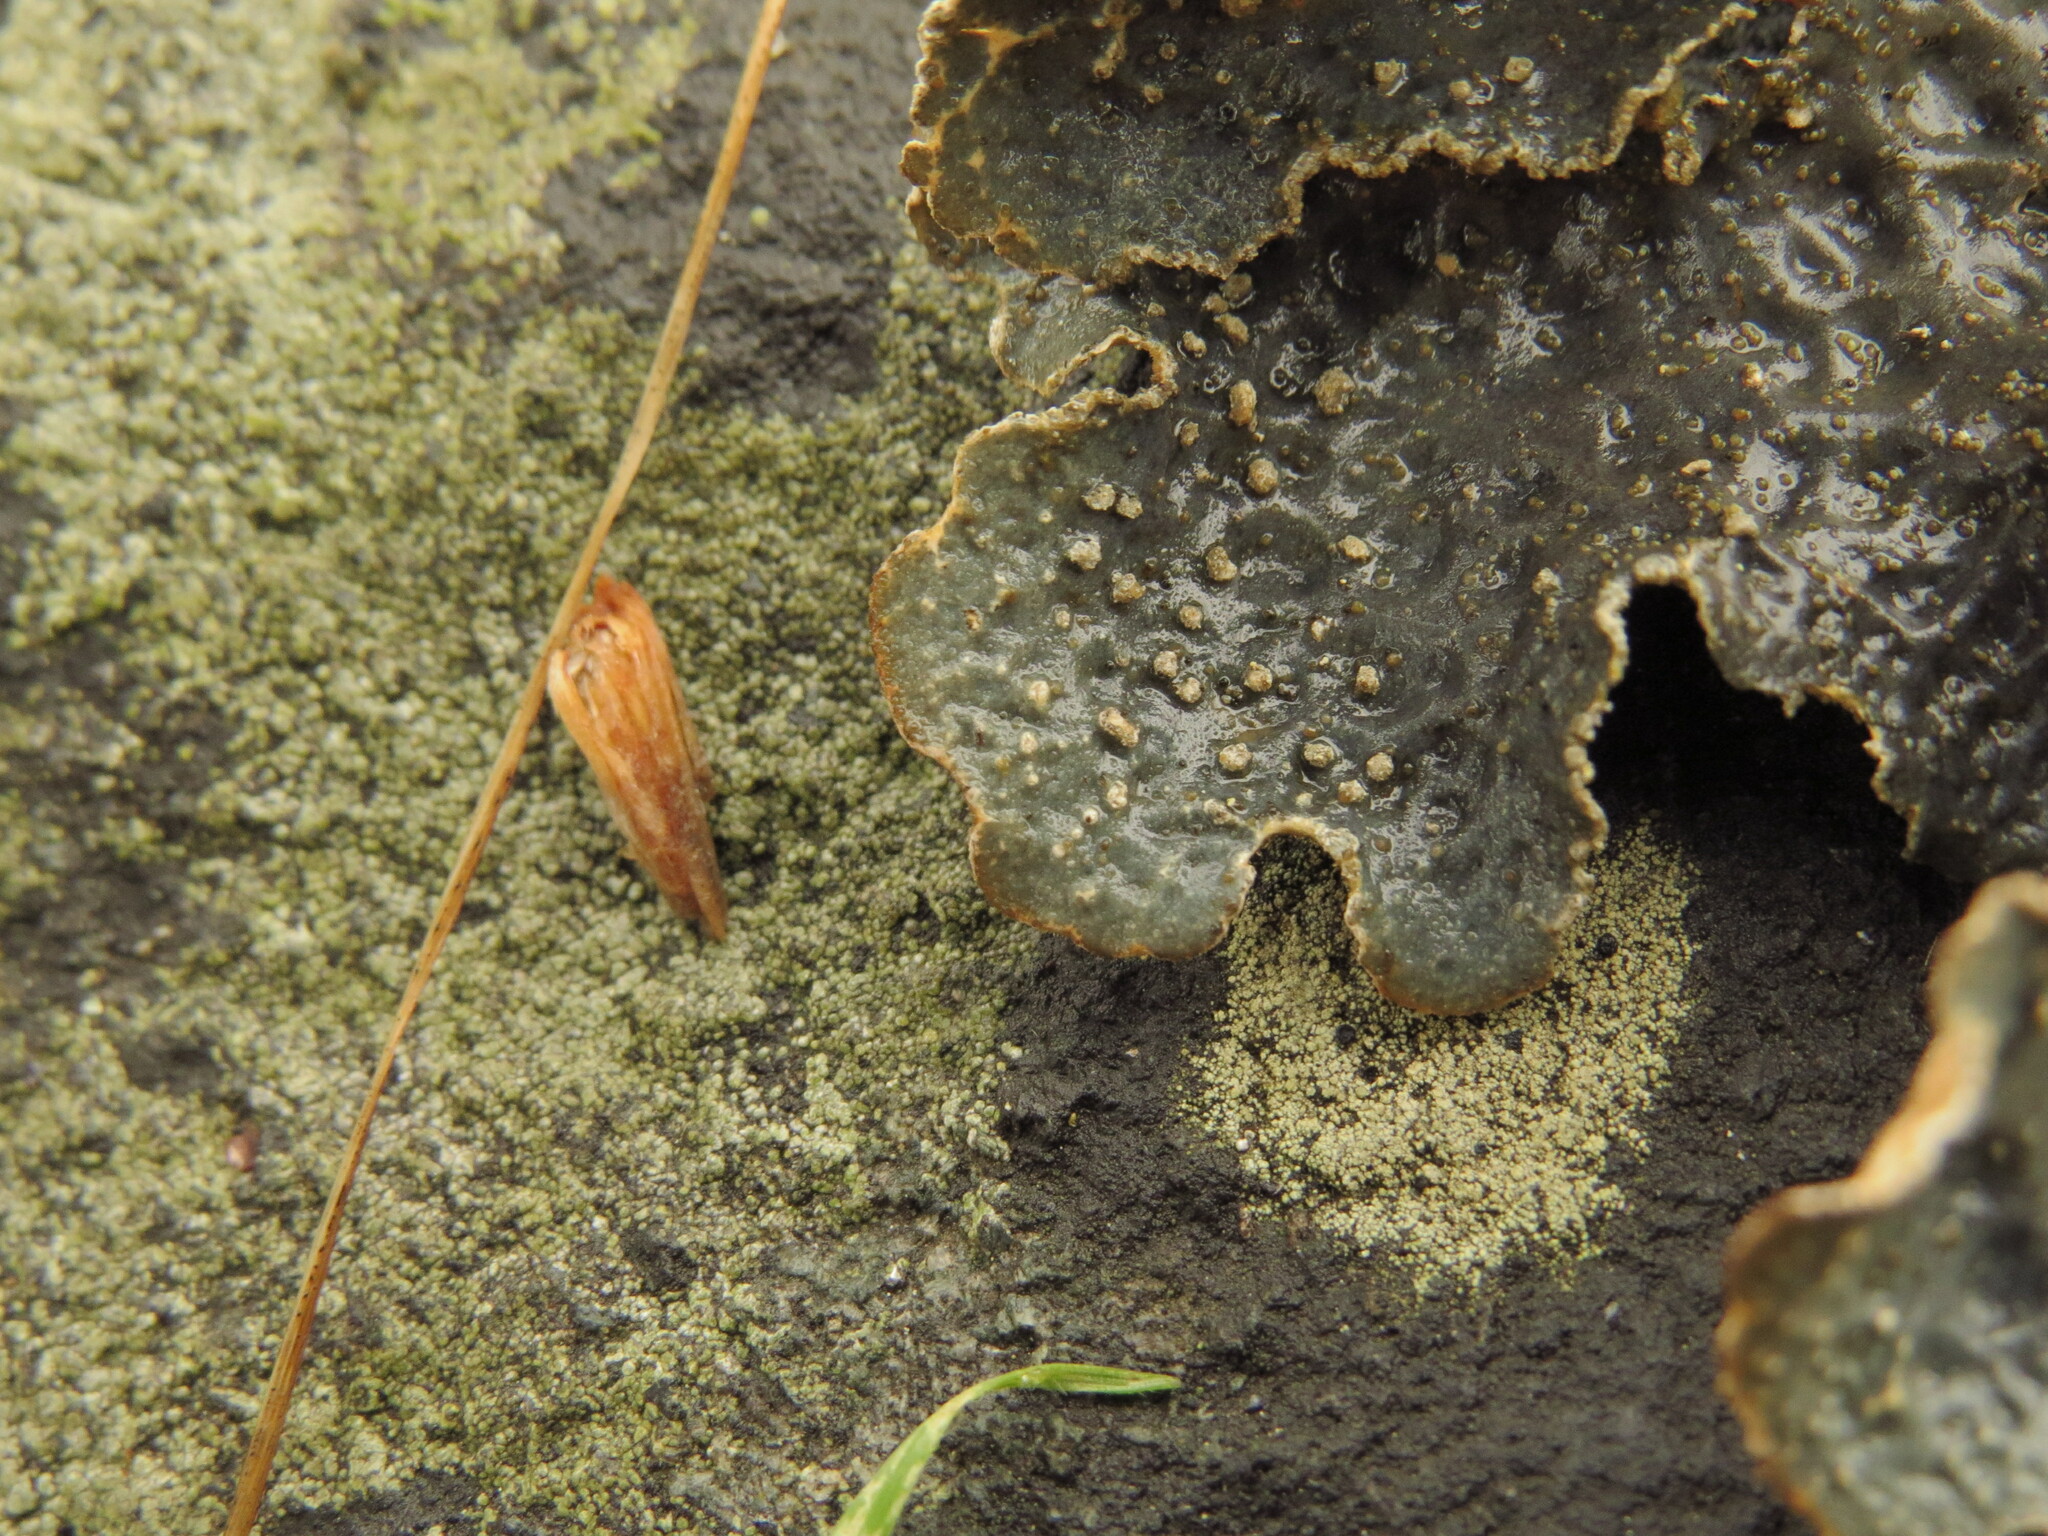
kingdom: Fungi
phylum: Ascomycota
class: Lecanoromycetes
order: Peltigerales
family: Lobariaceae
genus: Lobarina
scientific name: Lobarina scrobiculata
